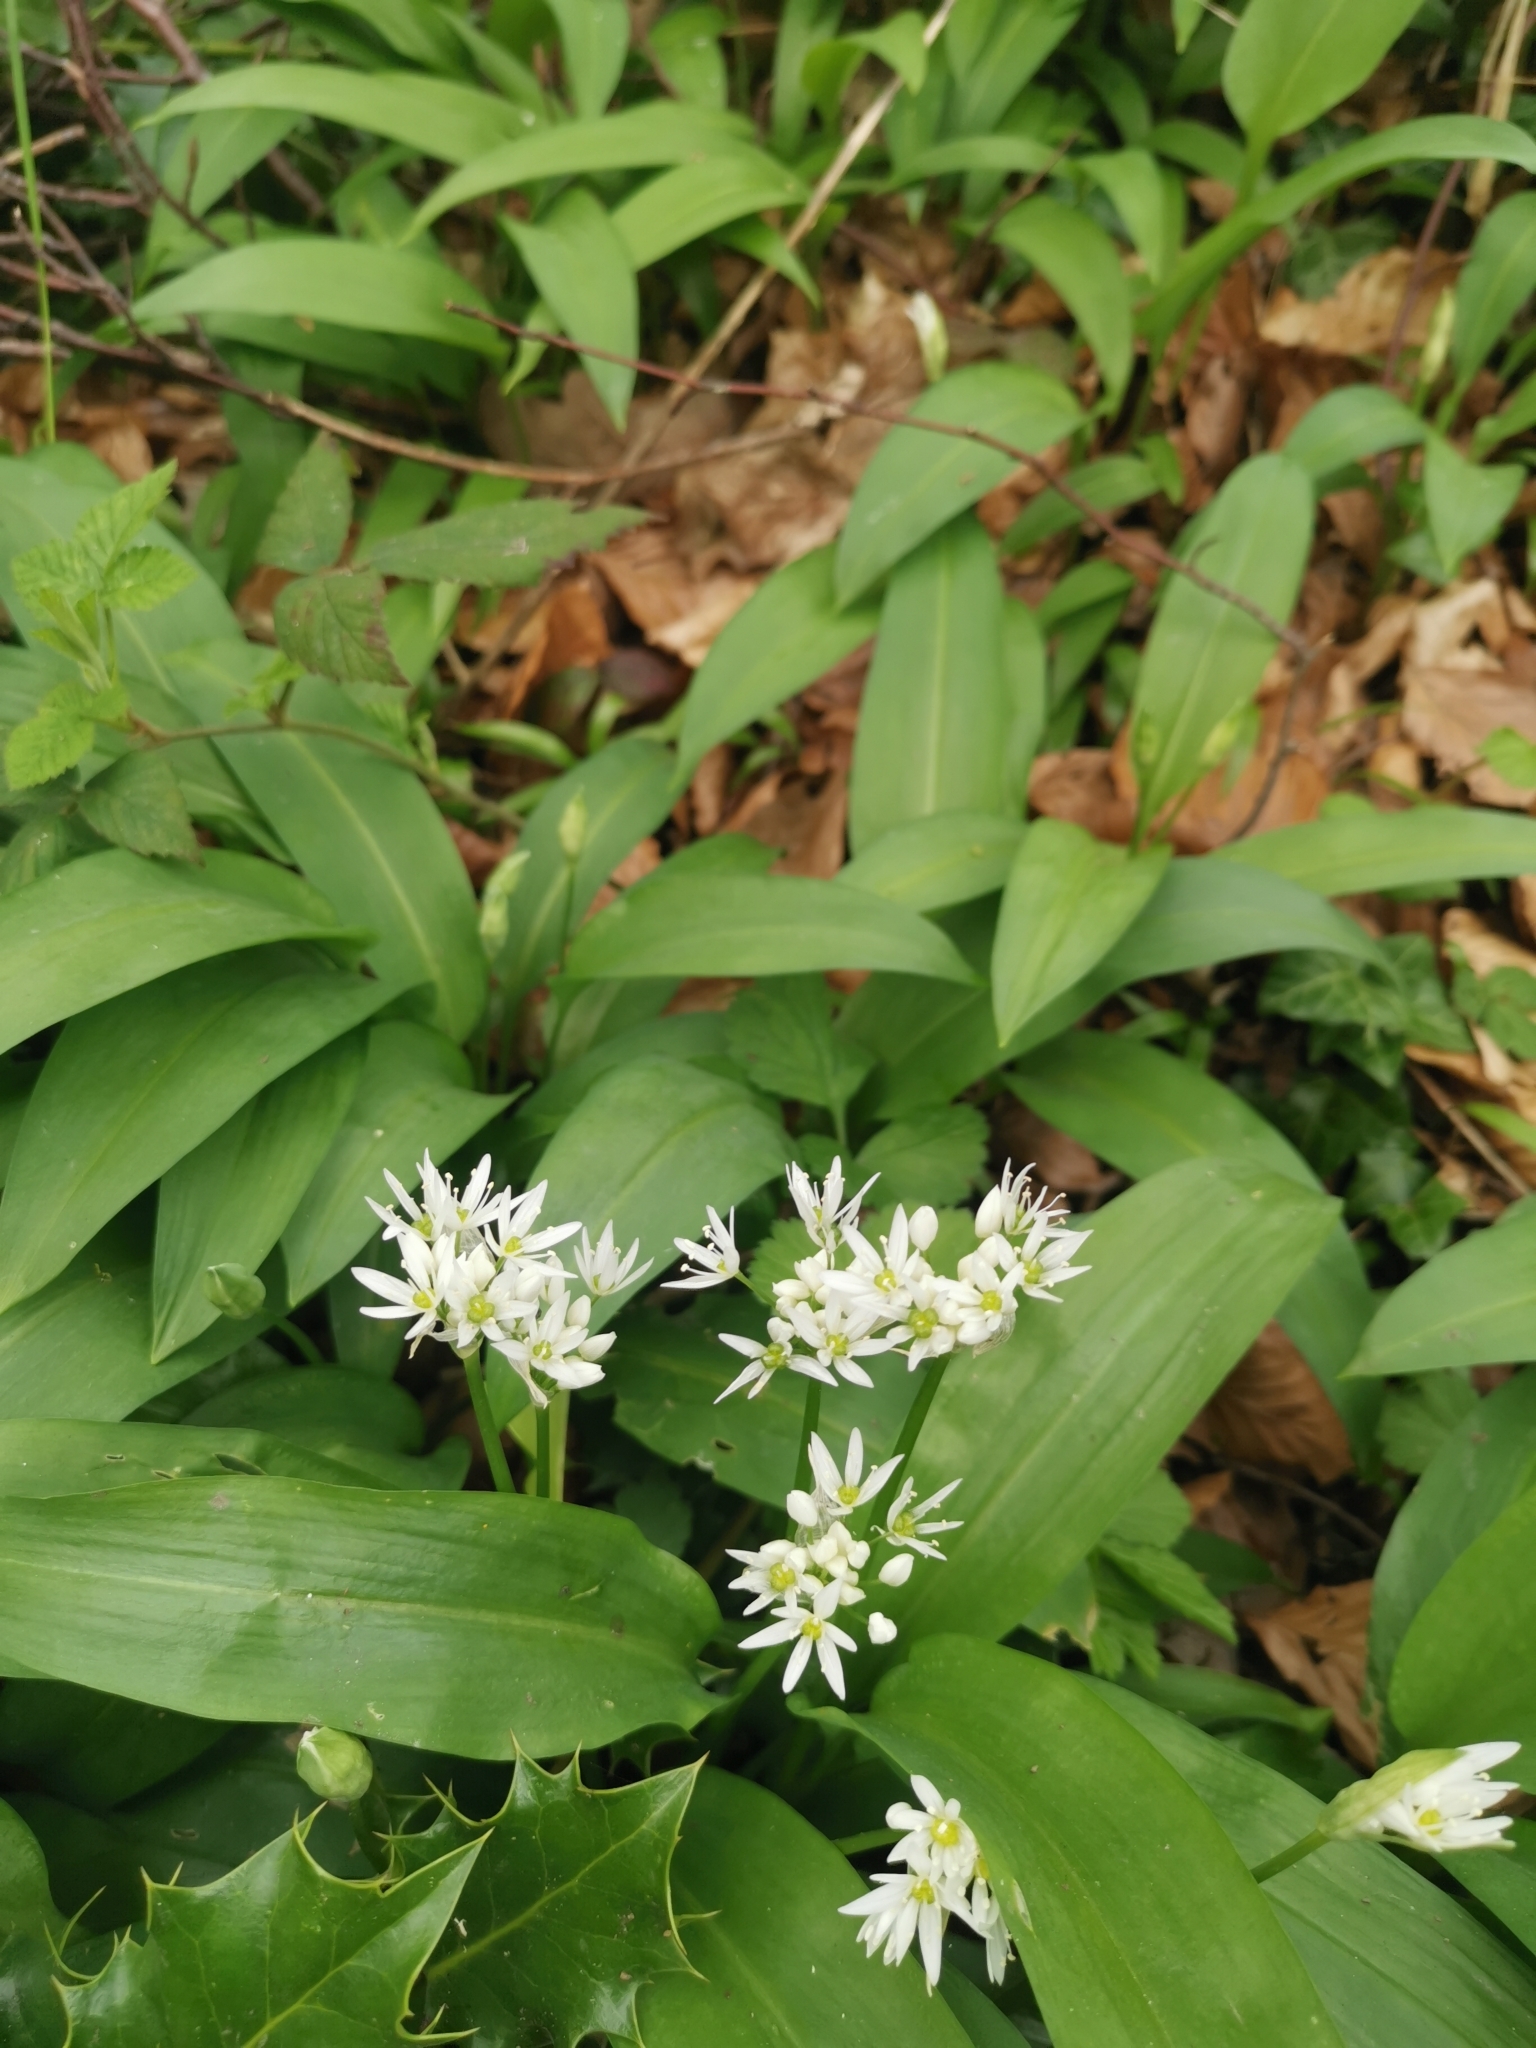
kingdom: Plantae
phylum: Tracheophyta
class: Liliopsida
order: Asparagales
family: Amaryllidaceae
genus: Allium
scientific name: Allium ursinum
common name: Ramsons
